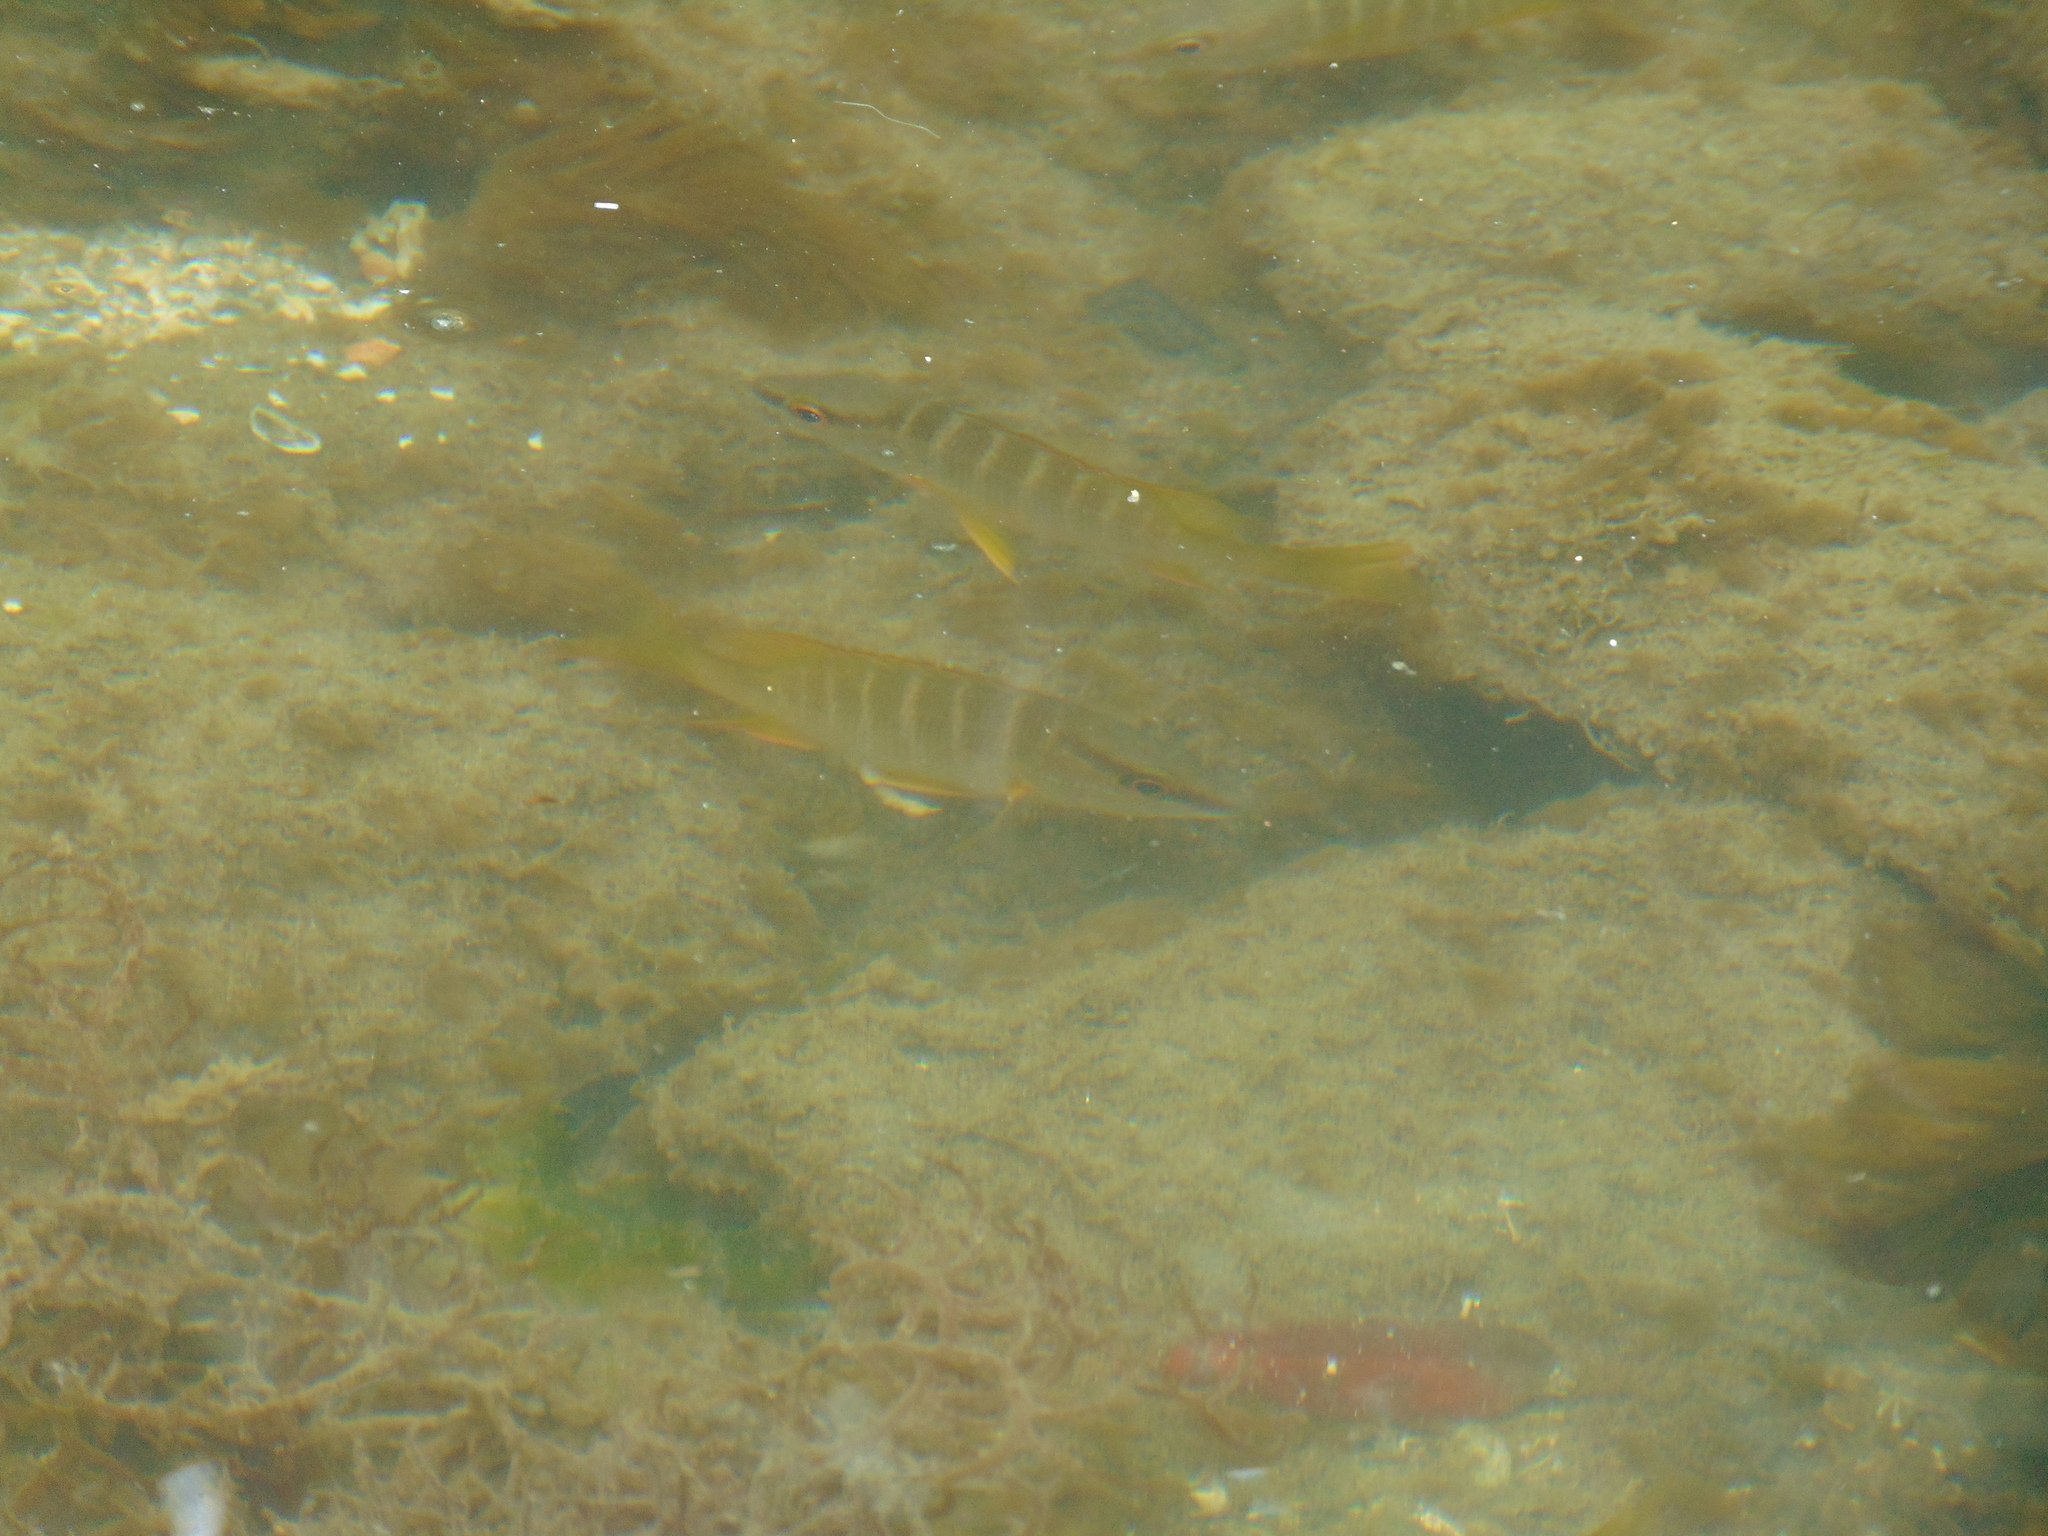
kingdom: Animalia
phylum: Chordata
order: Perciformes
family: Lutjanidae
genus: Lutjanus
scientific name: Lutjanus apodus
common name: Schoolmaster
